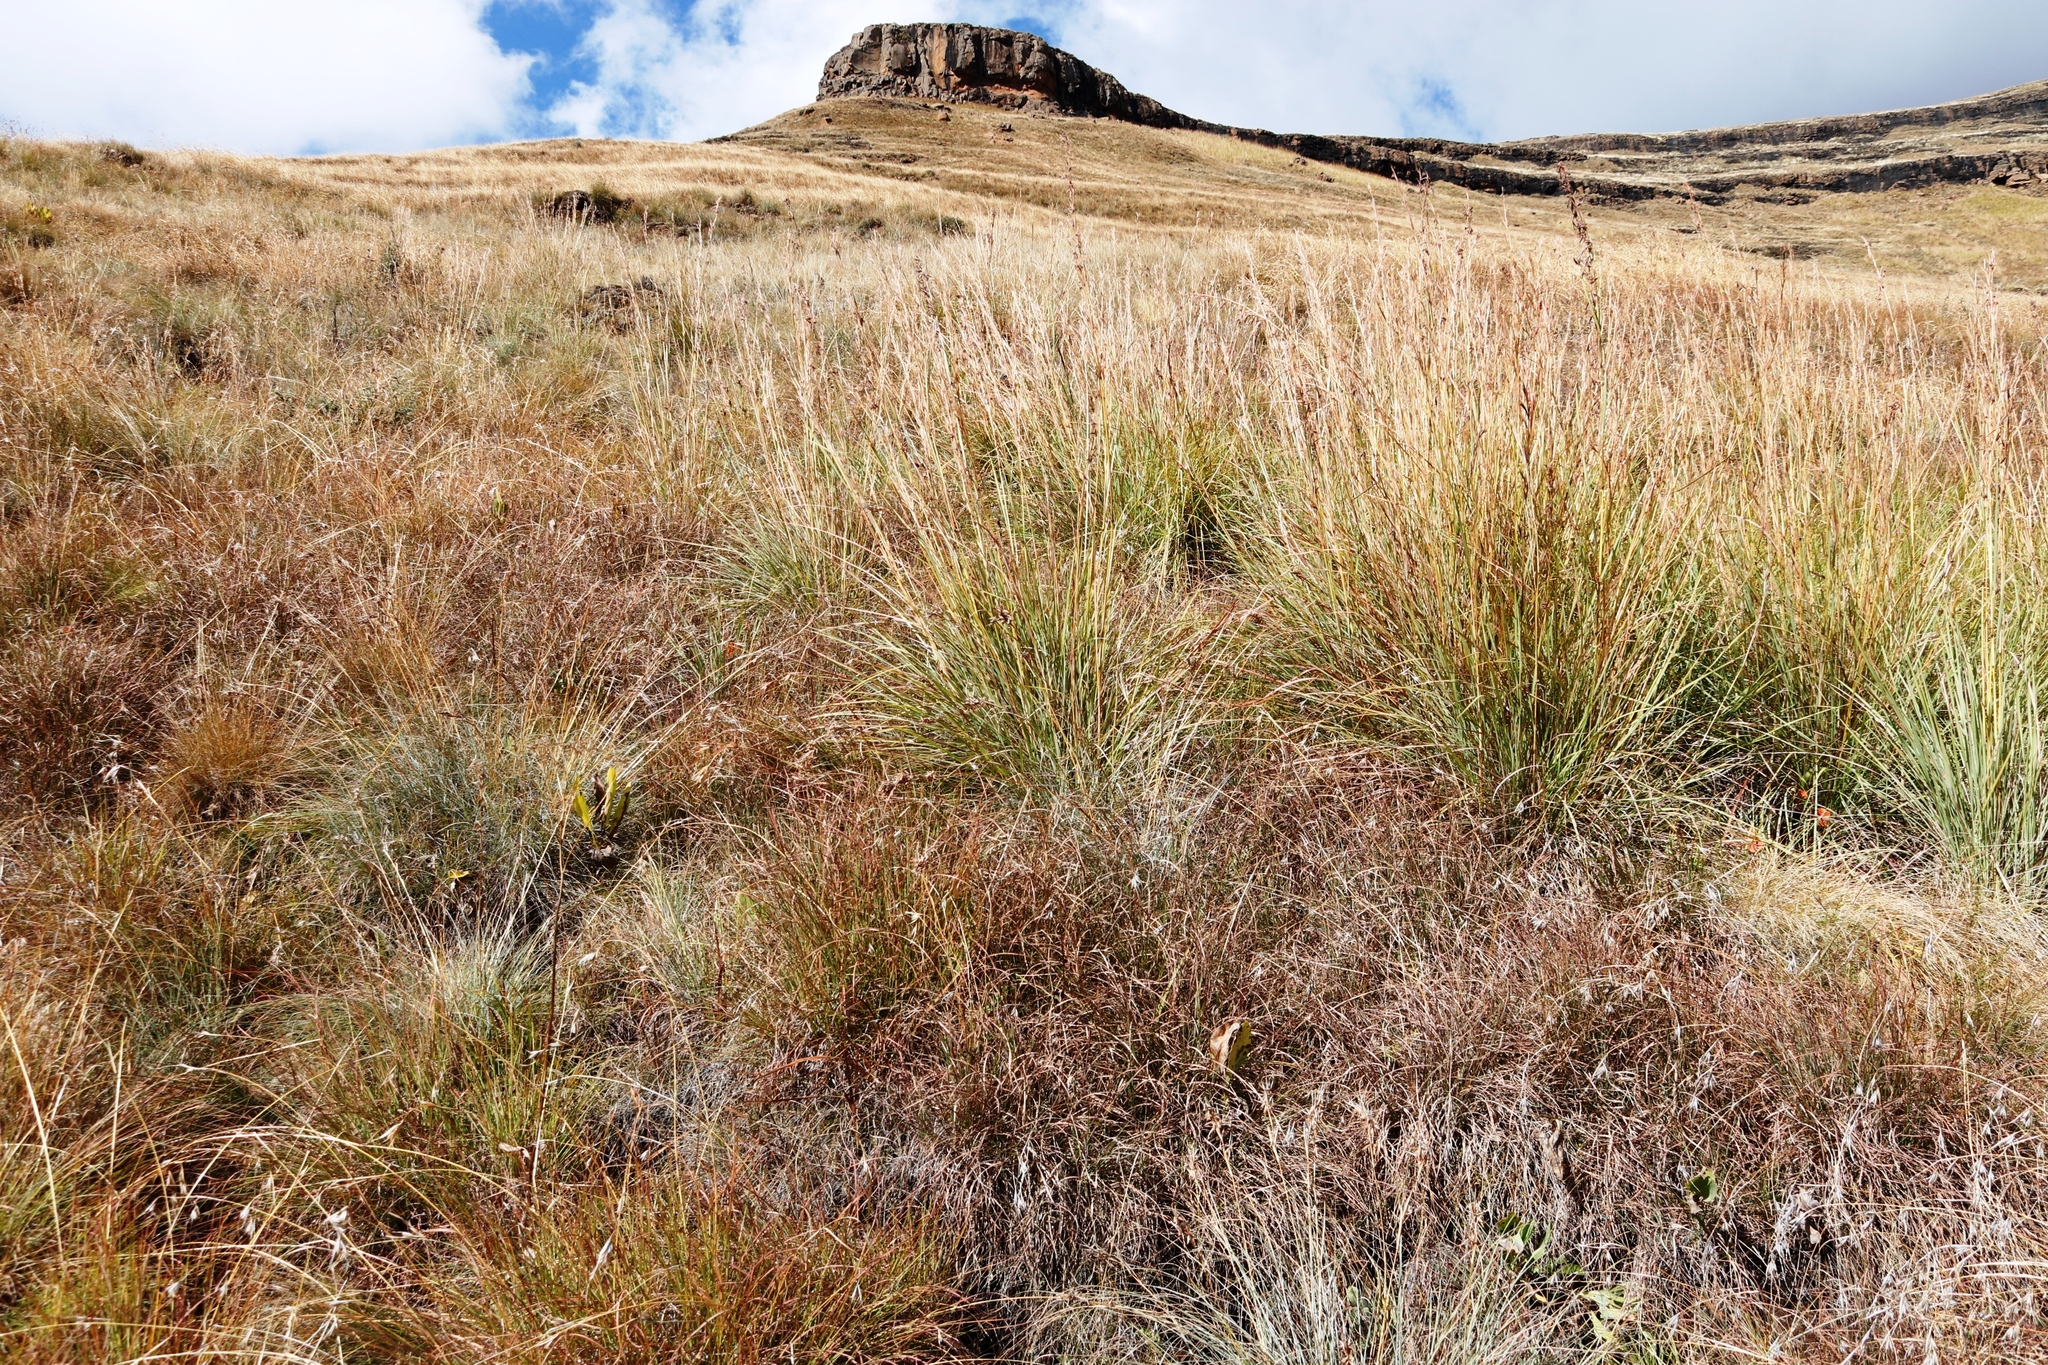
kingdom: Plantae
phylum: Tracheophyta
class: Liliopsida
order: Poales
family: Poaceae
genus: Hyparrhenia
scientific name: Hyparrhenia dregeana
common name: Silky thatching grass
